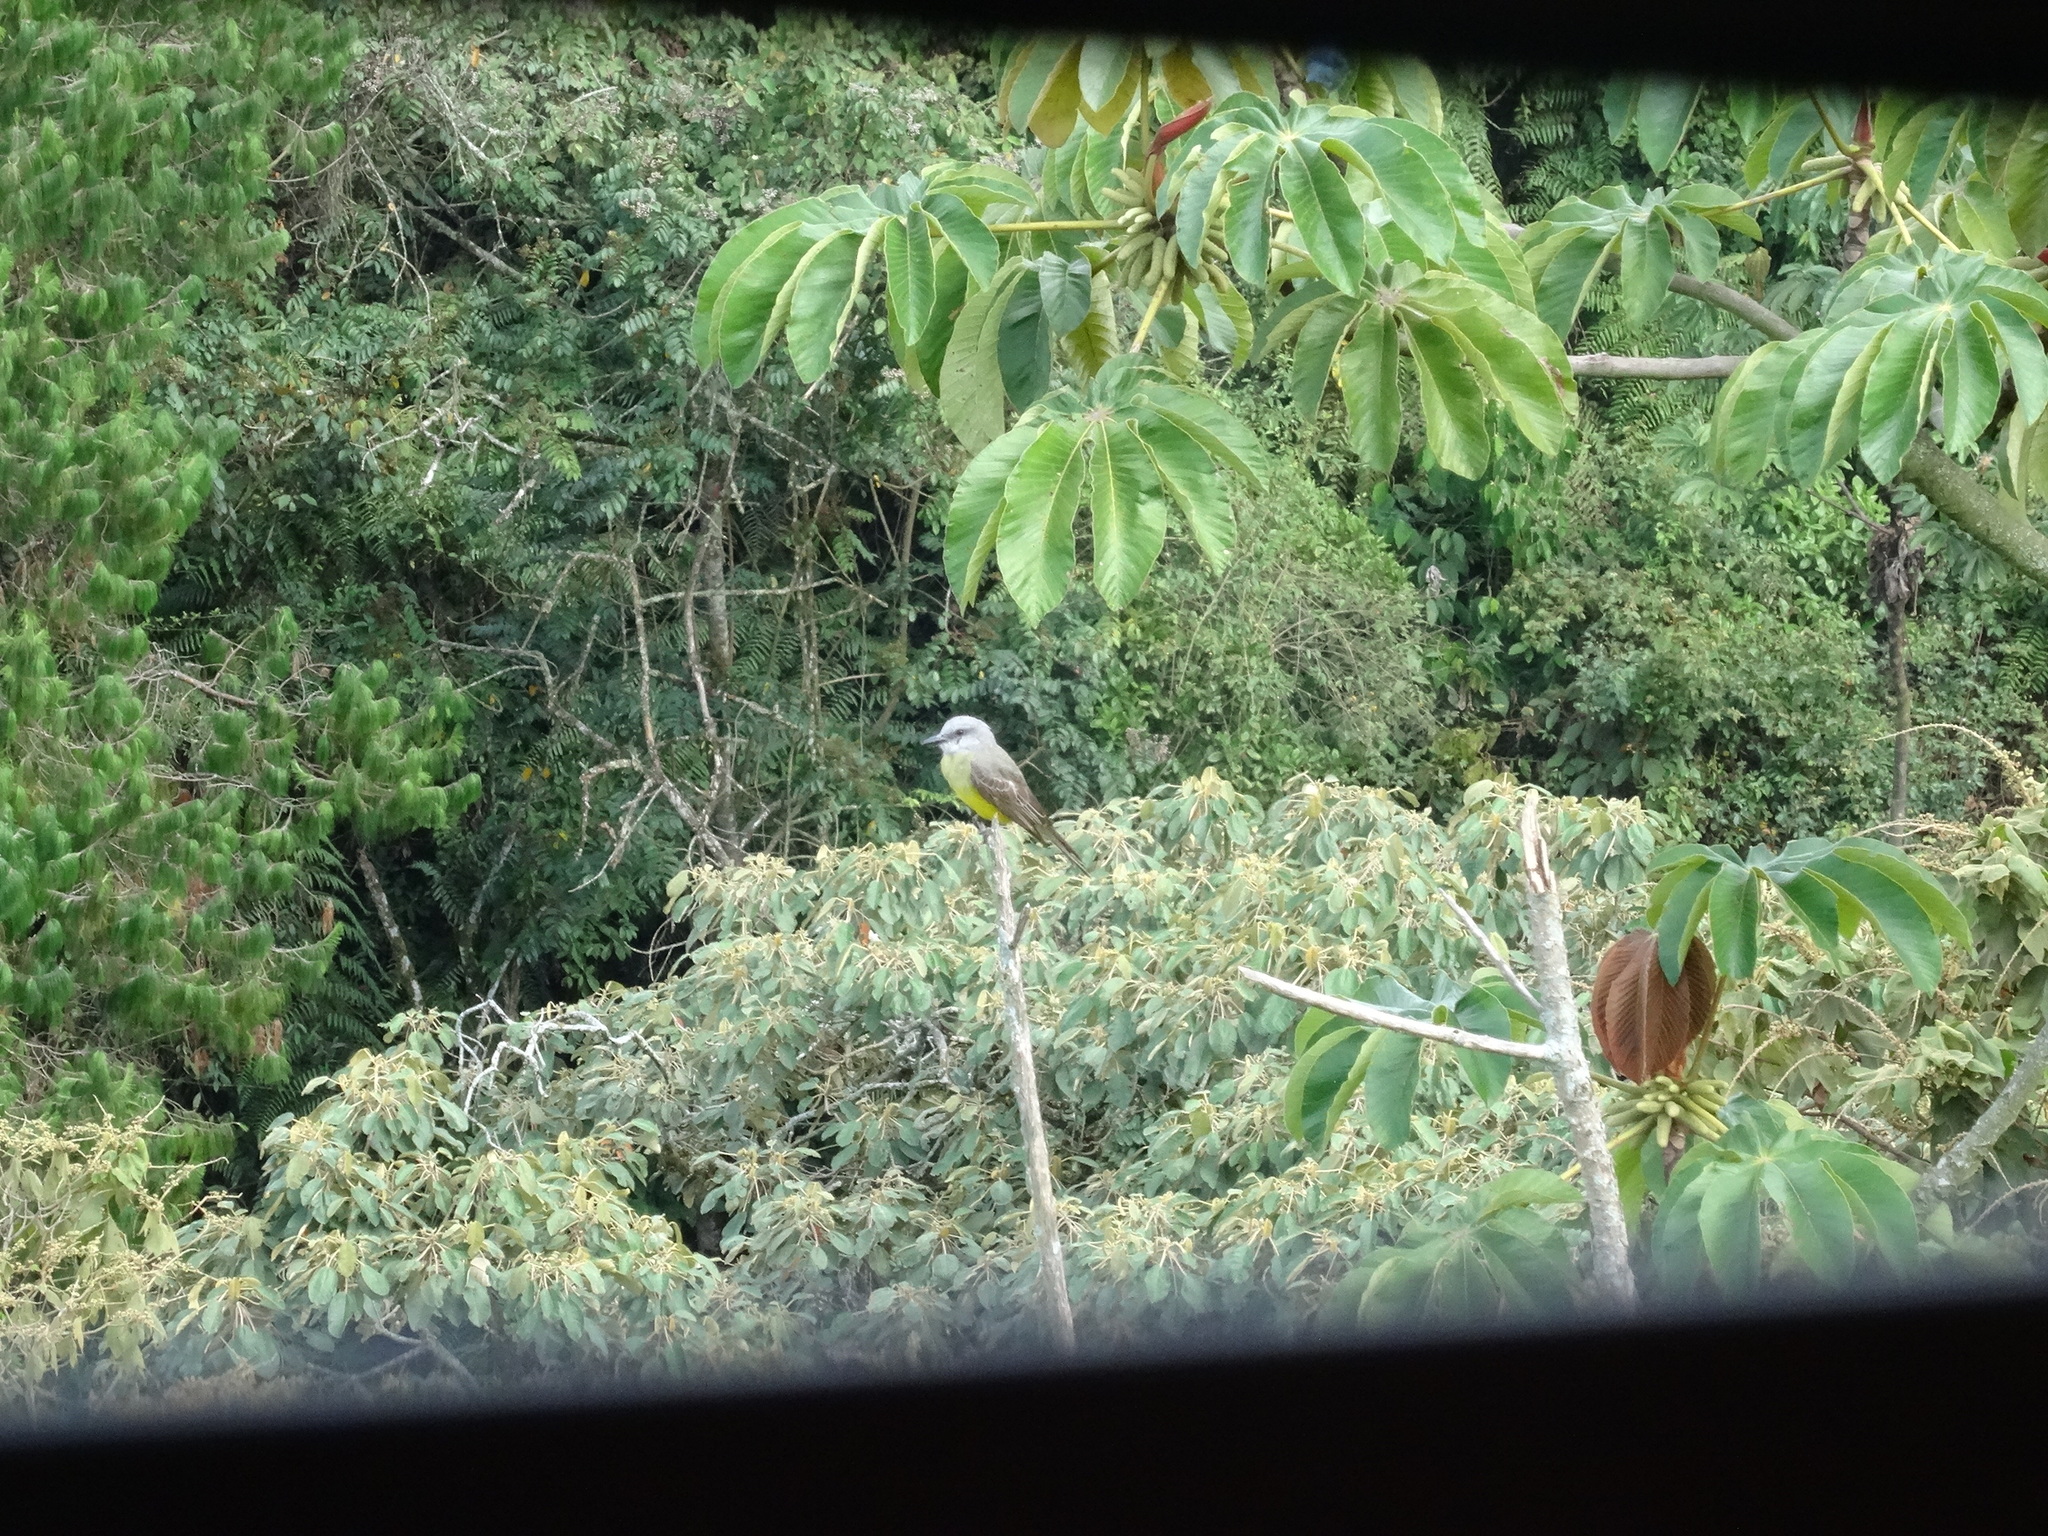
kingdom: Animalia
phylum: Chordata
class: Aves
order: Passeriformes
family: Tyrannidae
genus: Tyrannus
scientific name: Tyrannus melancholicus
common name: Tropical kingbird
